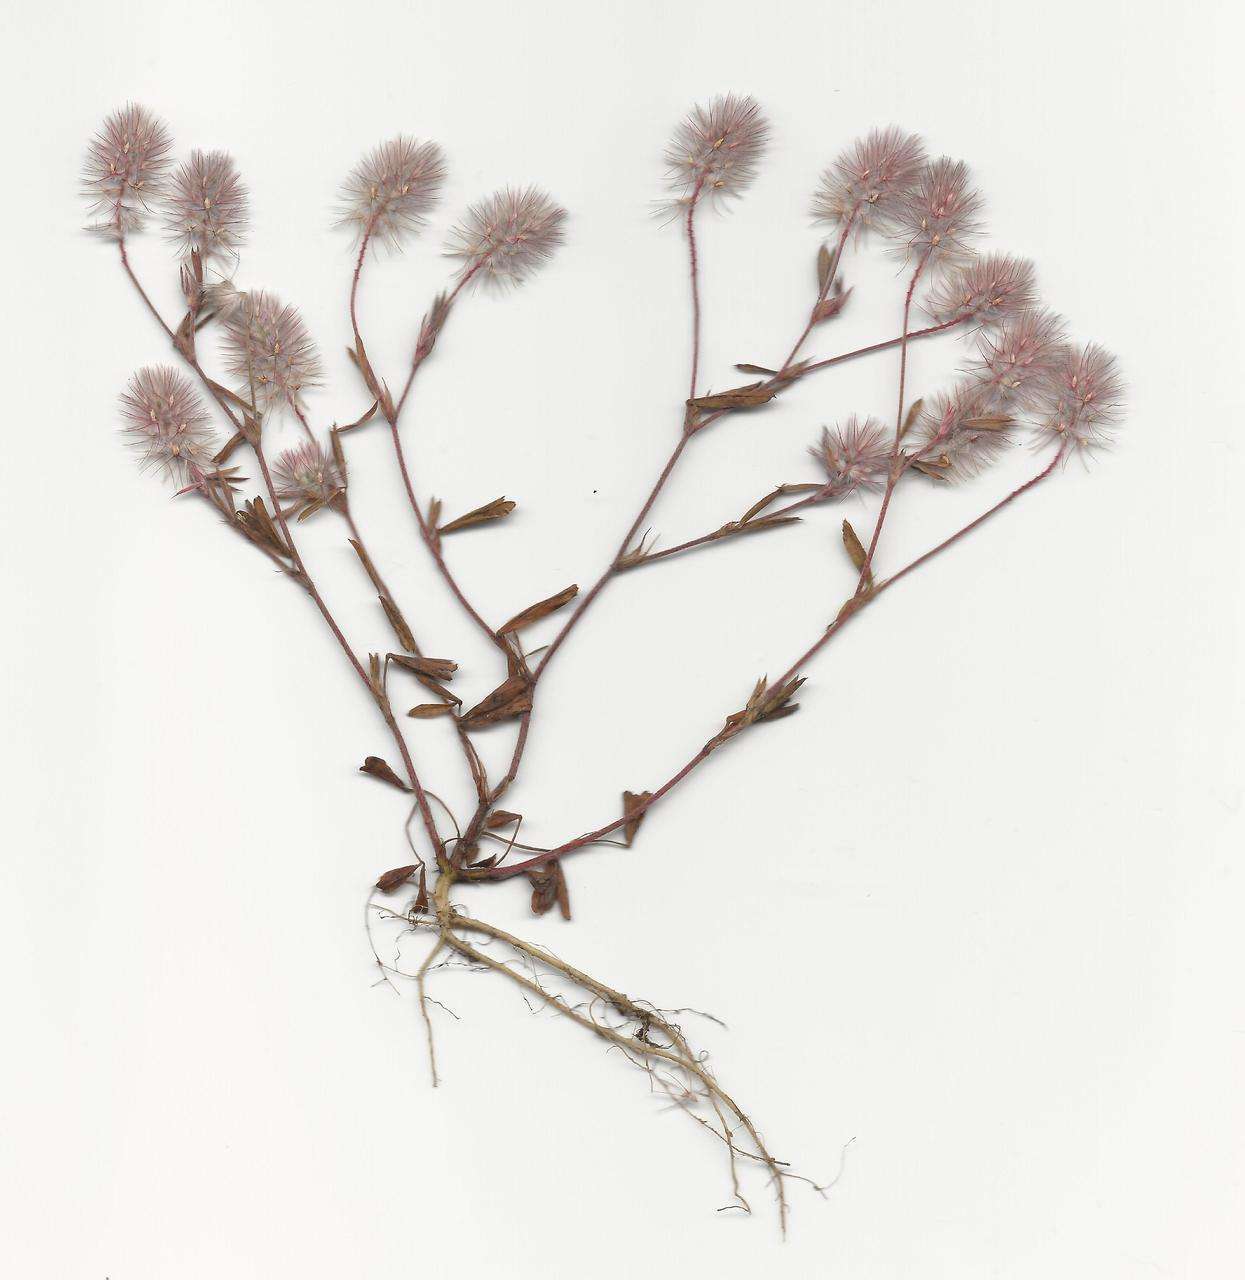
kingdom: Plantae
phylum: Tracheophyta
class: Magnoliopsida
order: Fabales
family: Fabaceae
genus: Trifolium
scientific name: Trifolium arvense
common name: Hare's-foot clover
